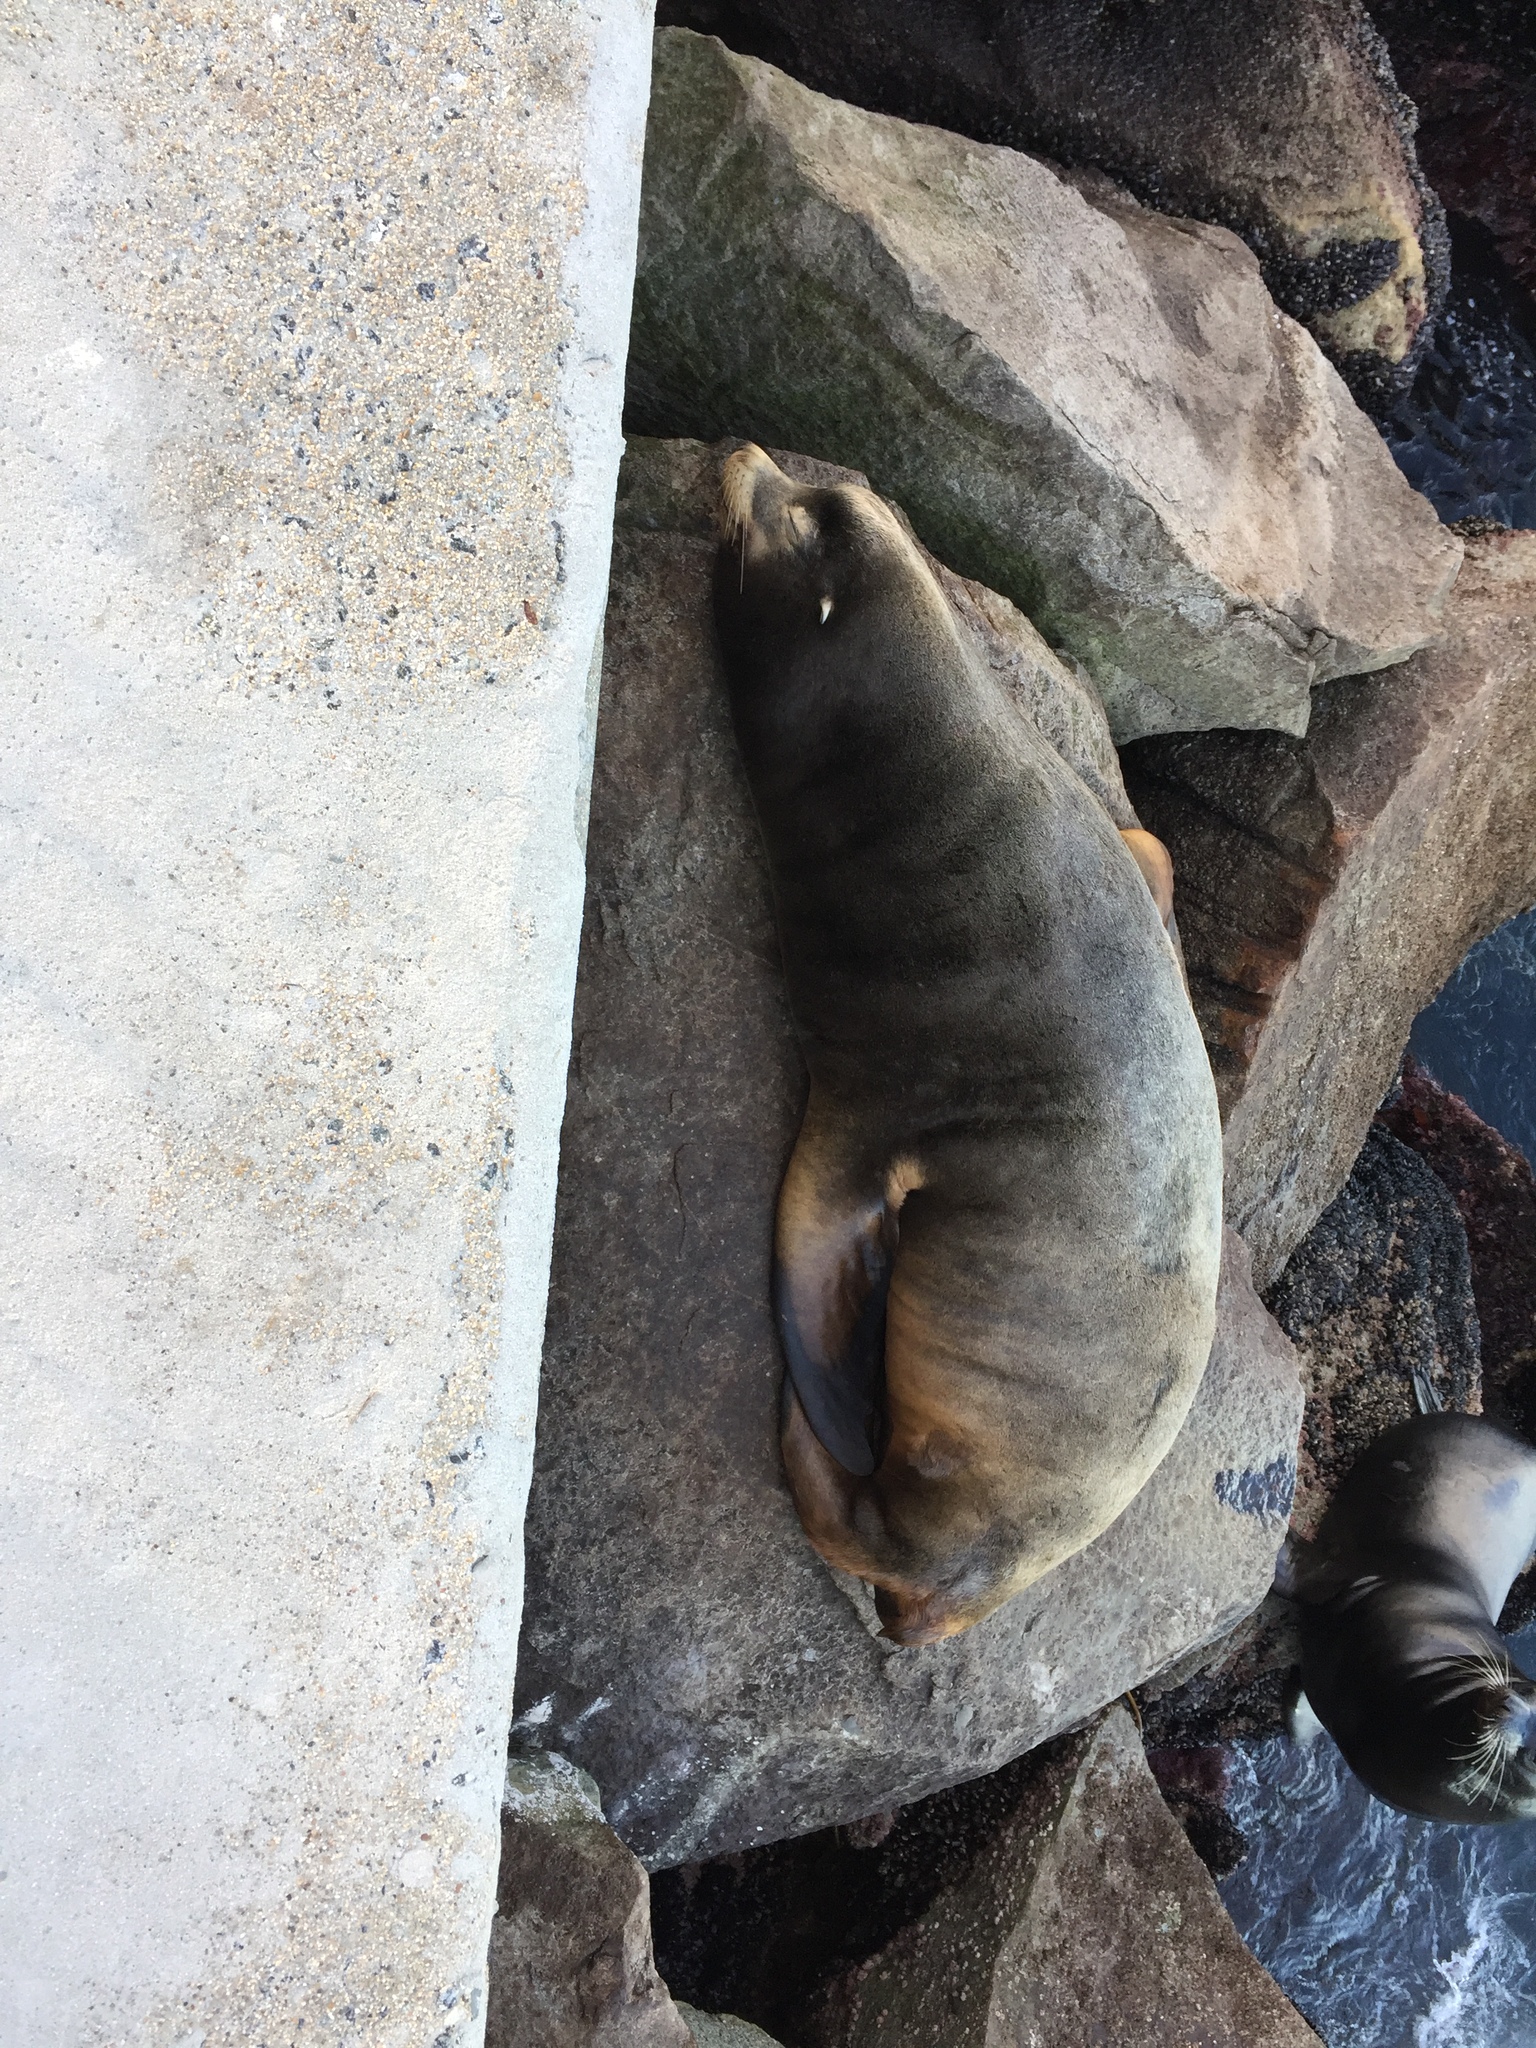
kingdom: Animalia
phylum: Chordata
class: Mammalia
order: Carnivora
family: Otariidae
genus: Zalophus
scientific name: Zalophus californianus
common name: California sea lion
